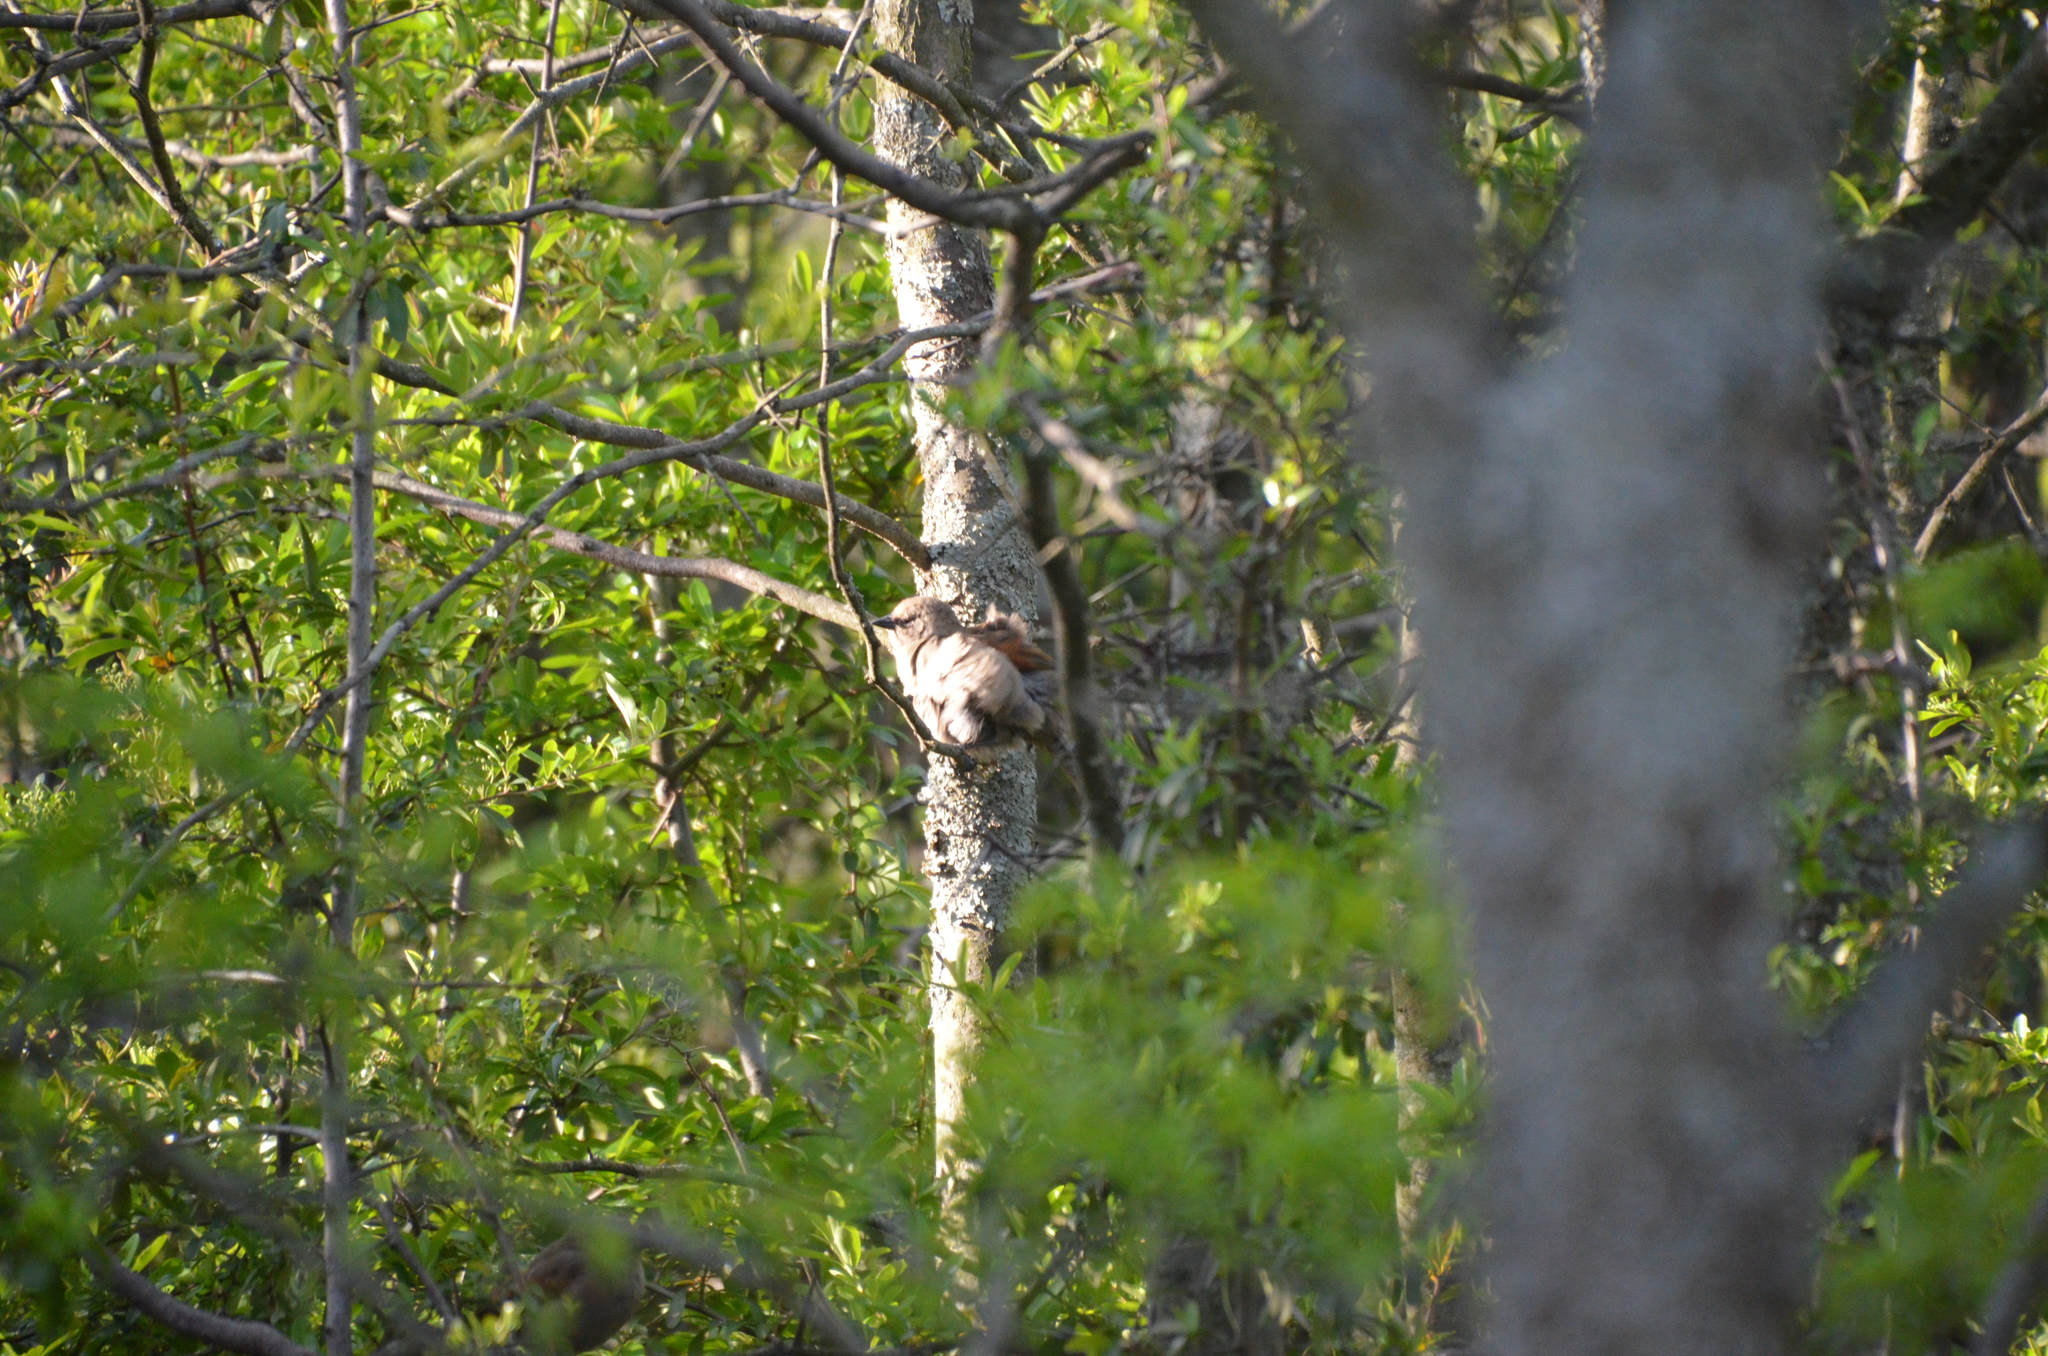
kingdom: Animalia
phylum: Chordata
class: Aves
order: Passeriformes
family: Icteridae
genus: Agelaioides
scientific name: Agelaioides badius
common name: Baywing
